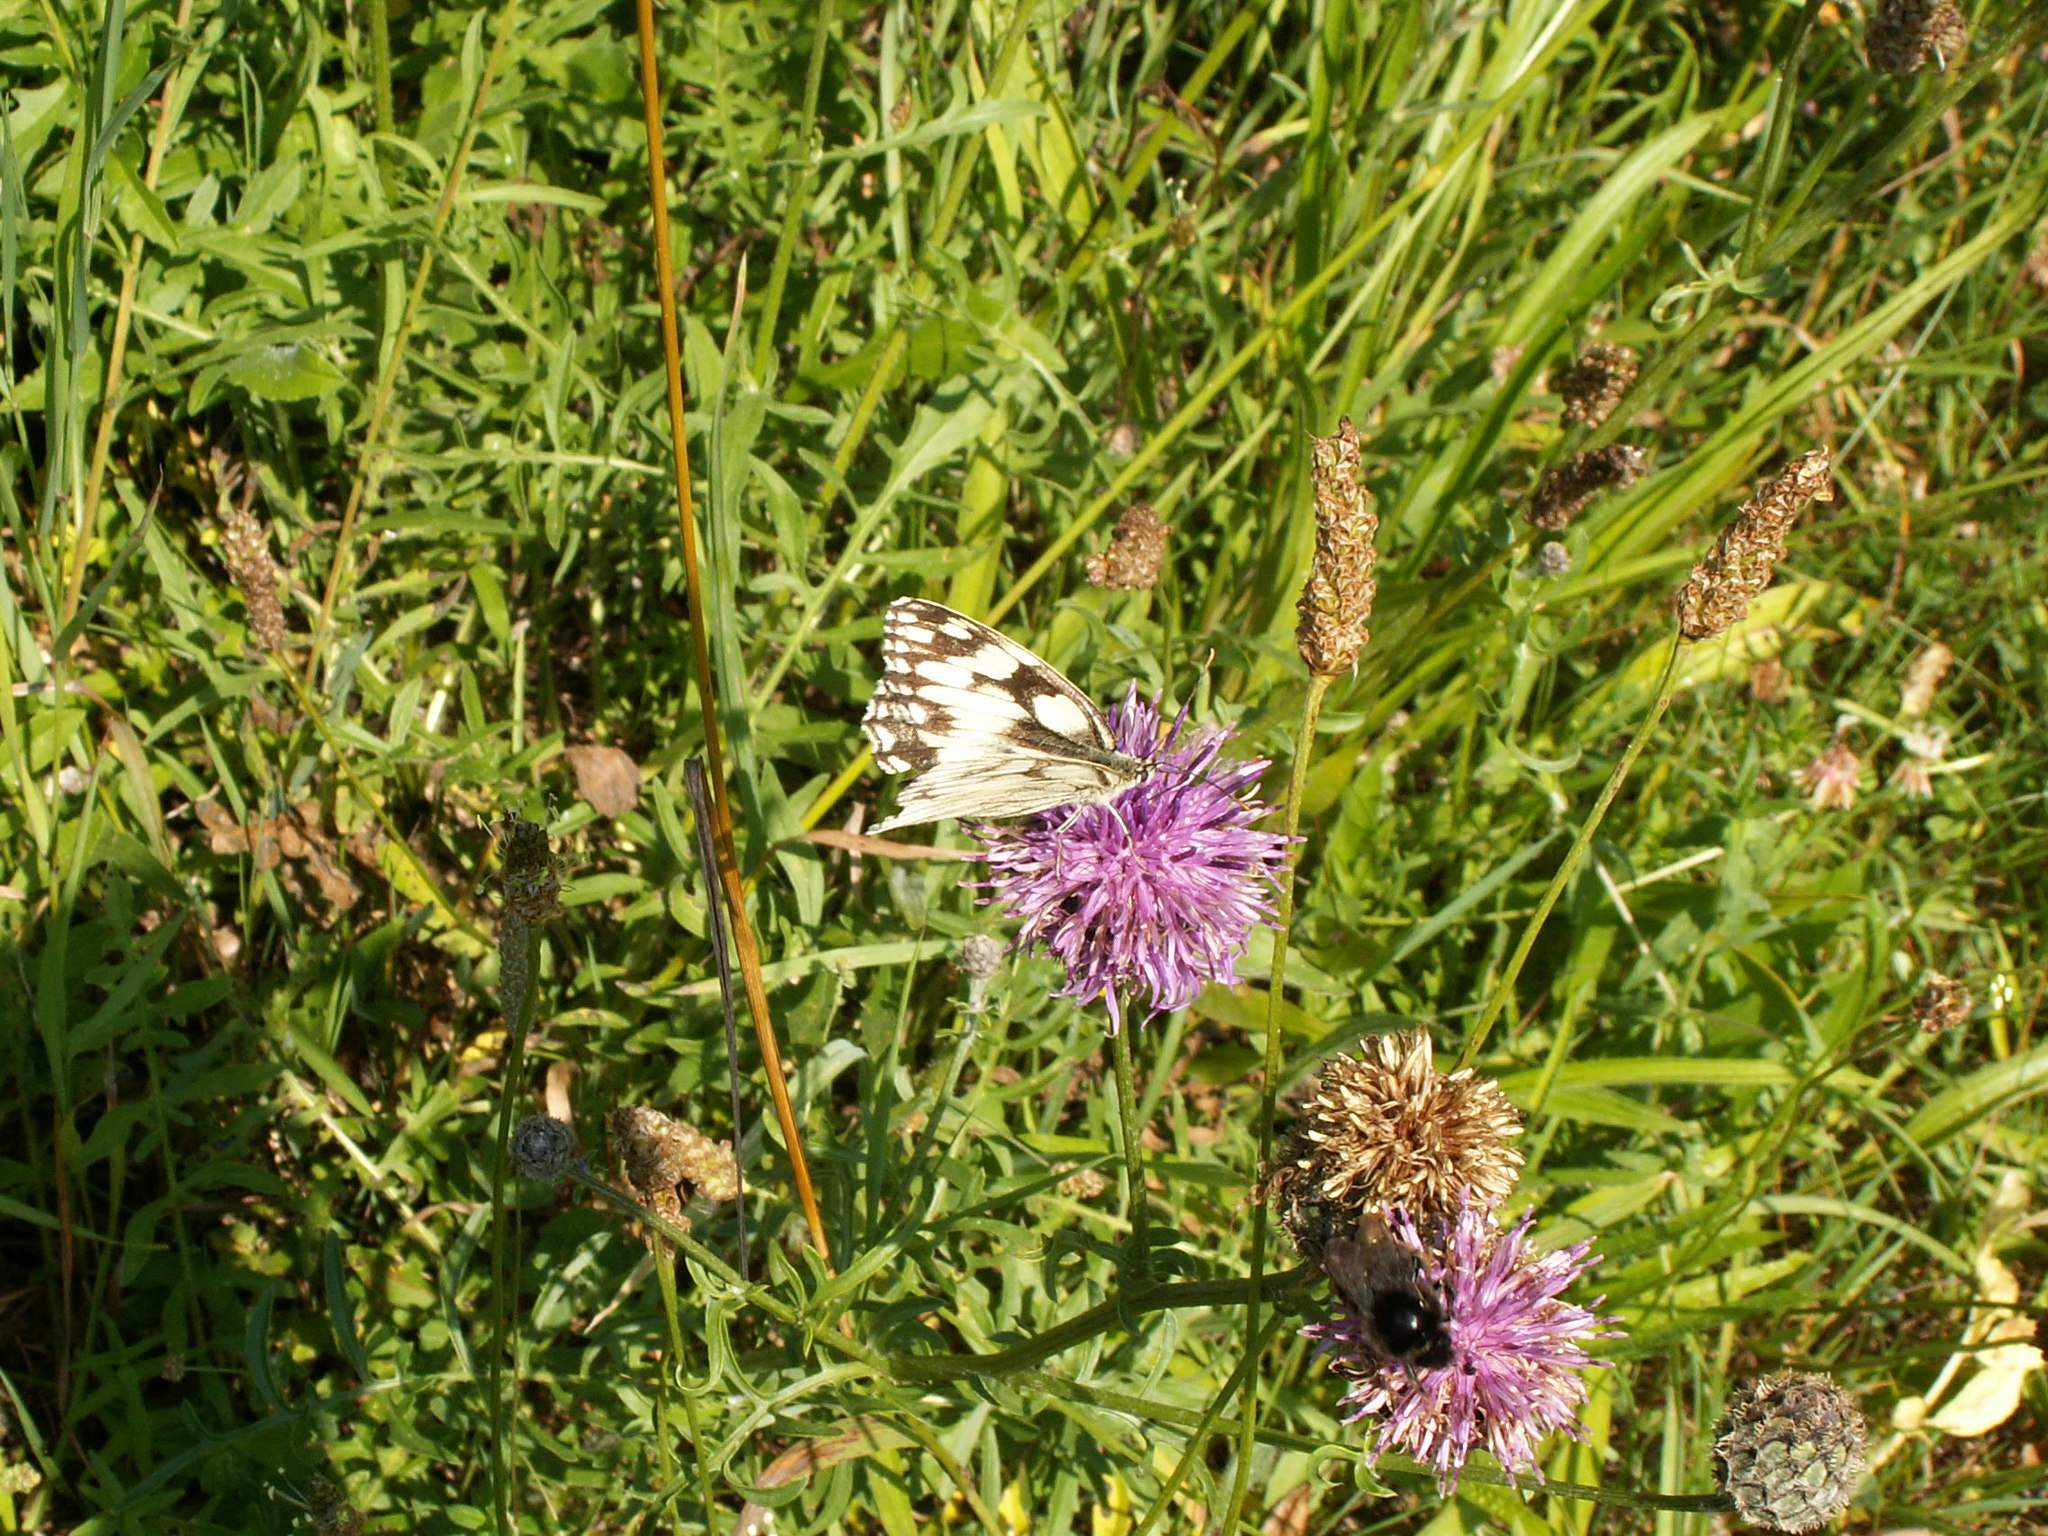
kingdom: Animalia
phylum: Arthropoda
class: Insecta
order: Lepidoptera
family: Nymphalidae
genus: Melanargia
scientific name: Melanargia galathea
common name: Marbled white
